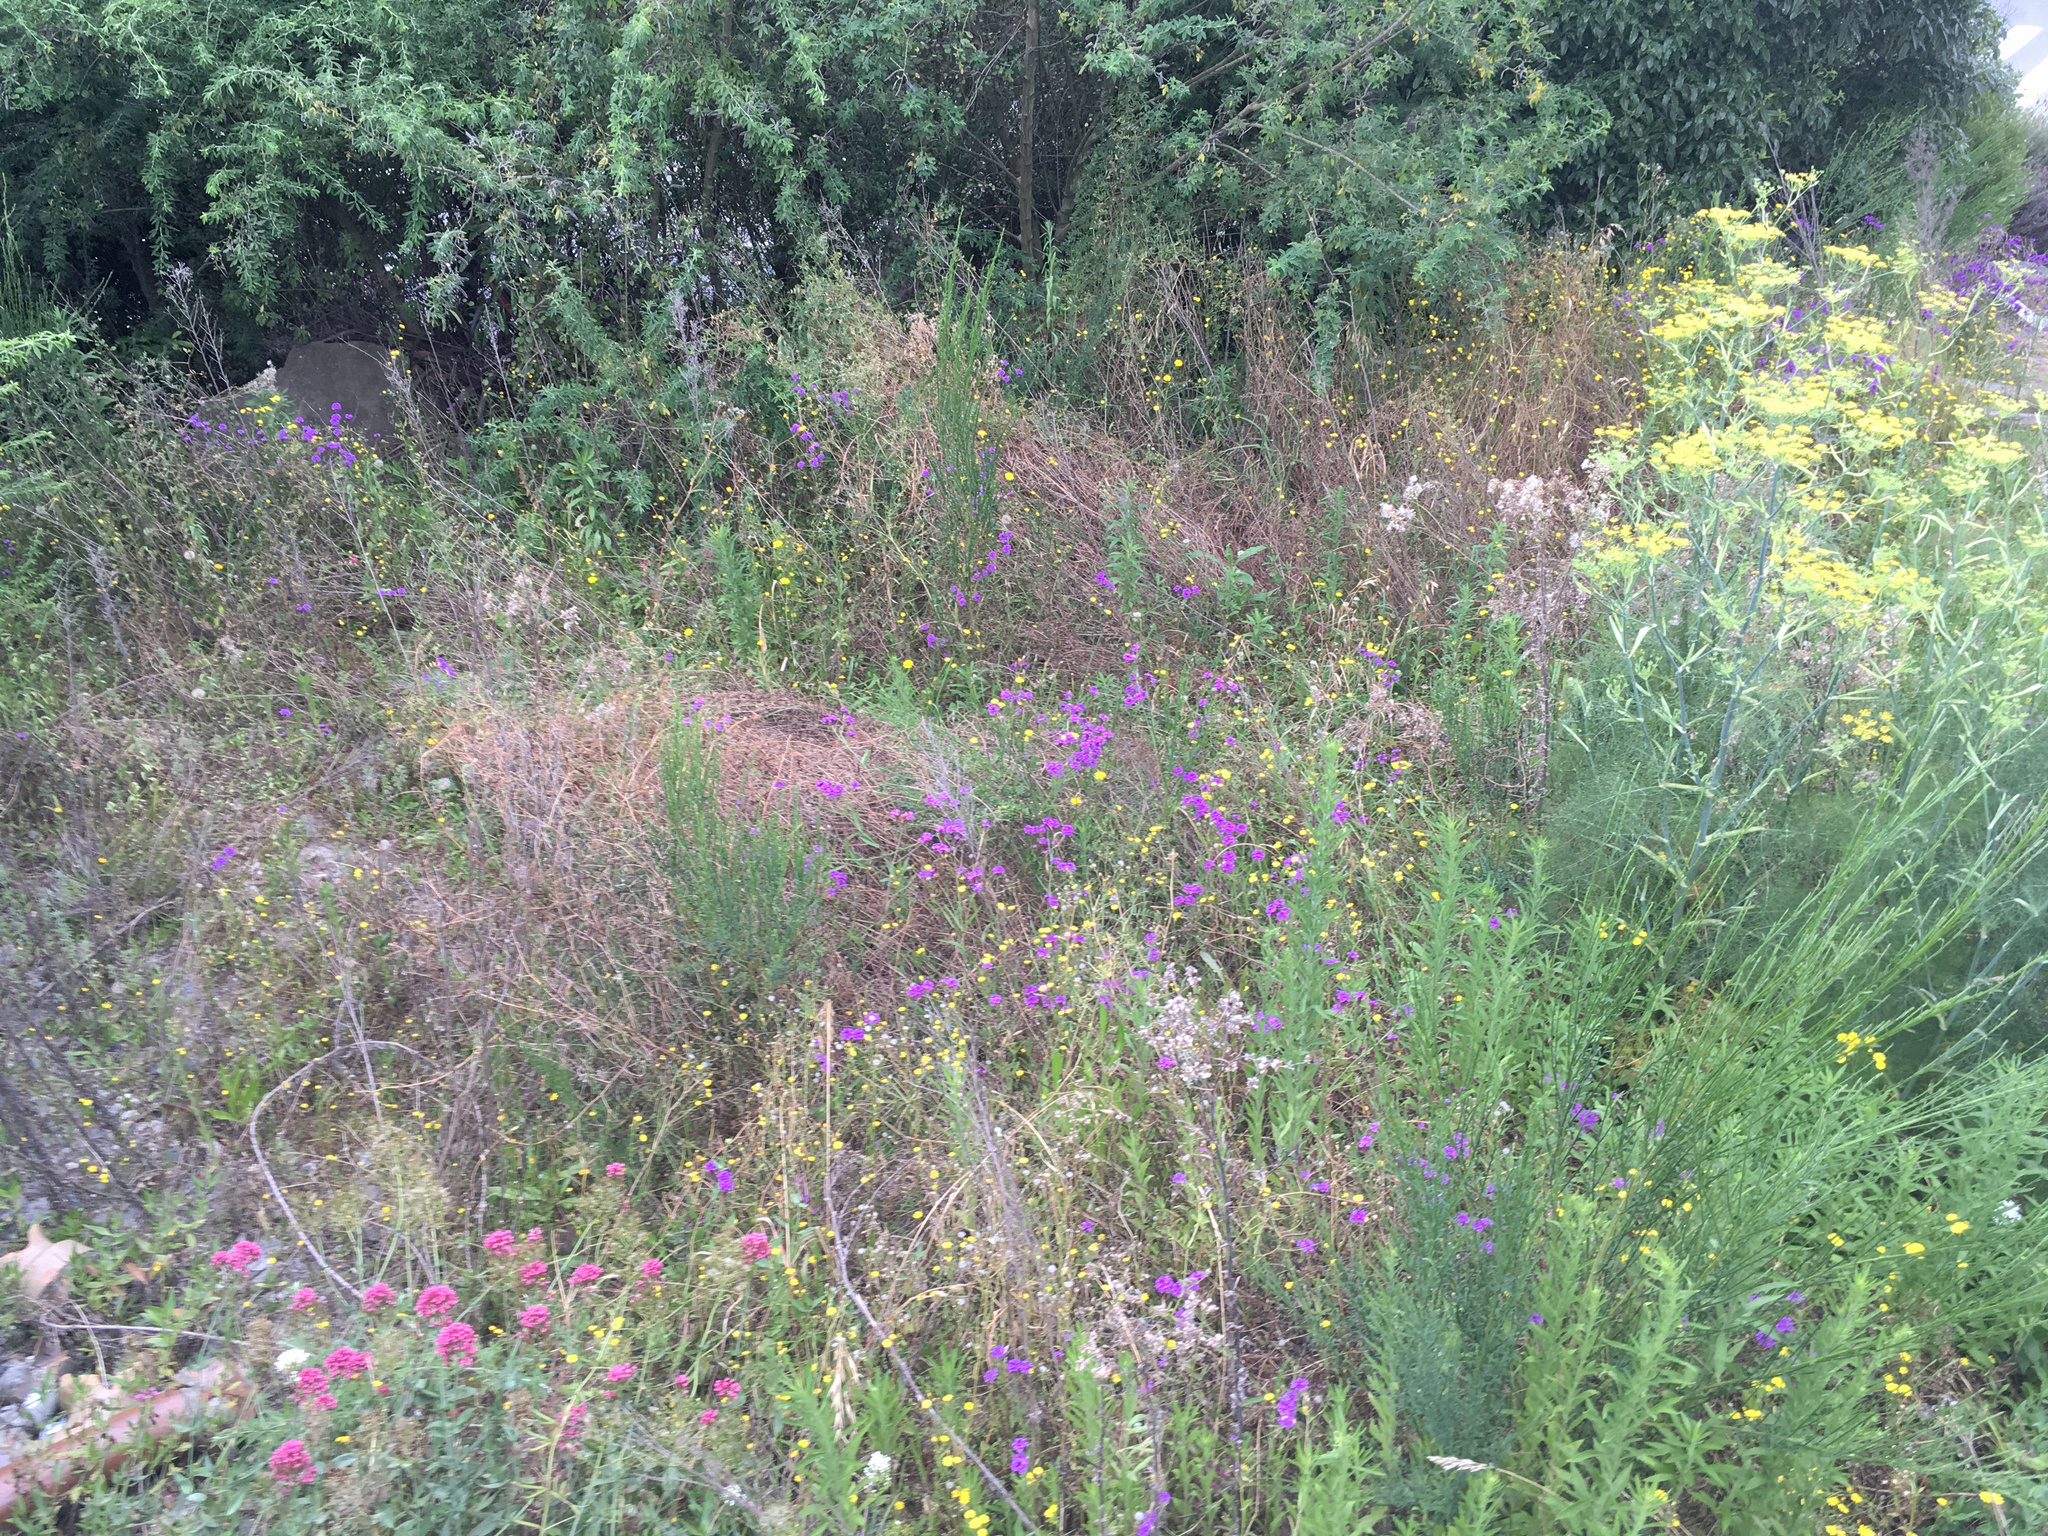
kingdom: Plantae
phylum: Tracheophyta
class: Magnoliopsida
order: Lamiales
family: Plantaginaceae
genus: Linaria
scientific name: Linaria purpurea
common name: Purple toadflax
